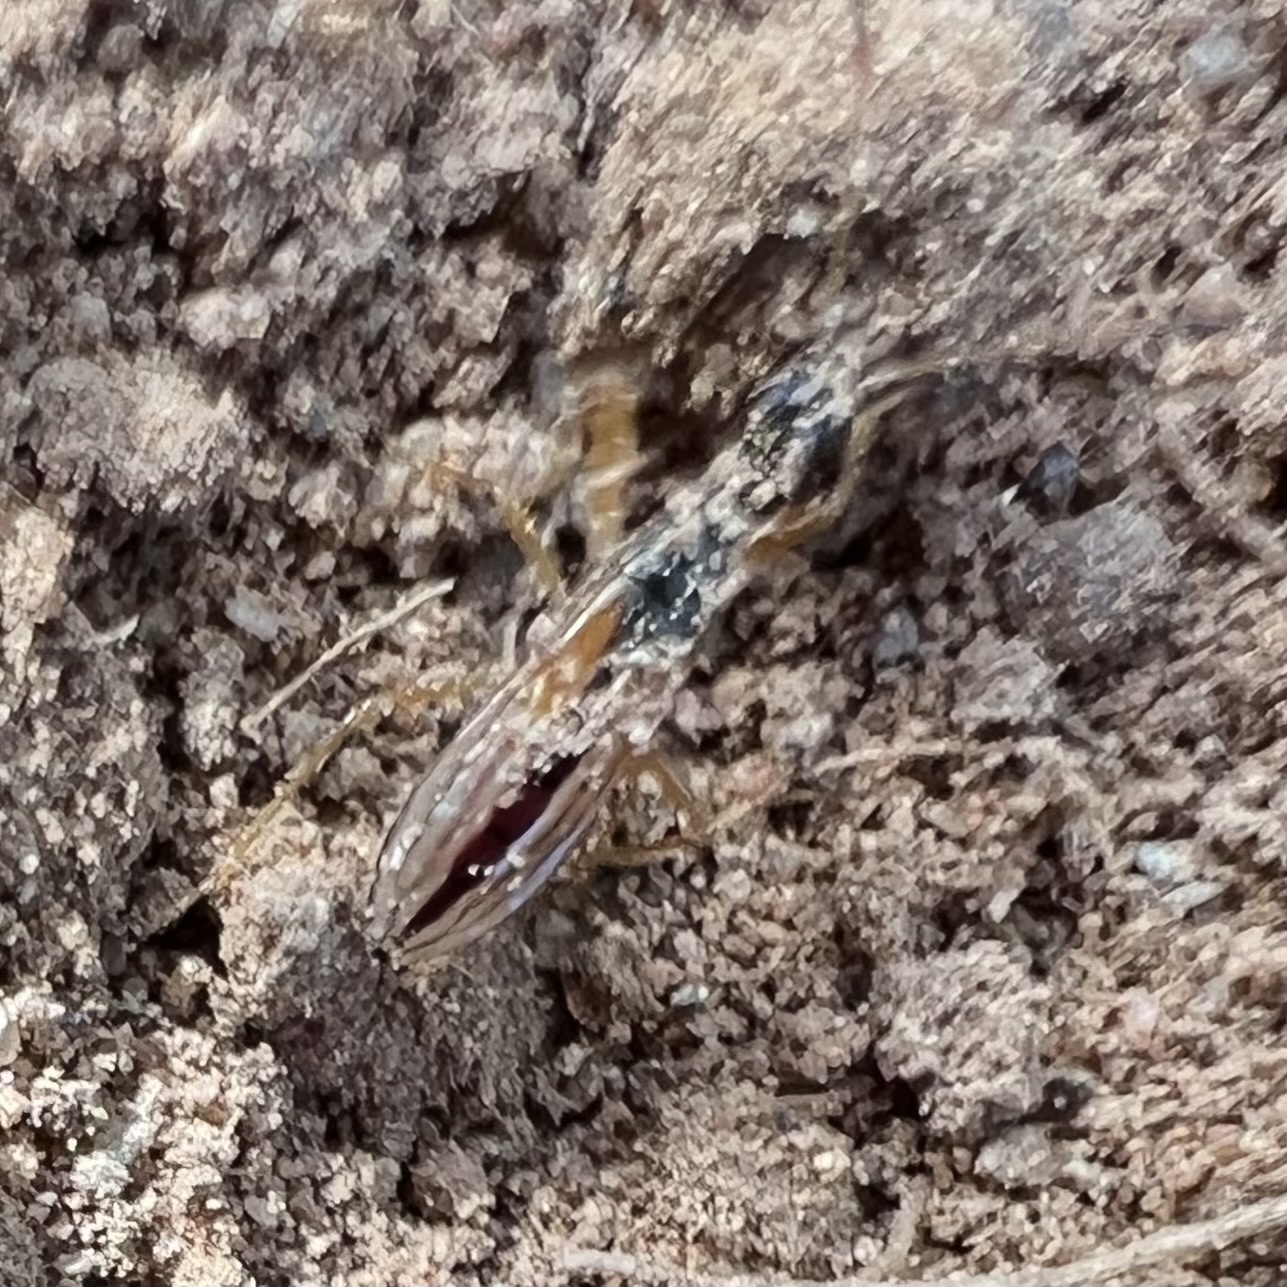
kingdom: Animalia
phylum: Arthropoda
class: Insecta
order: Hemiptera
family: Rhyparochromidae
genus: Myodocha
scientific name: Myodocha serripes
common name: Long-necked seed bug
